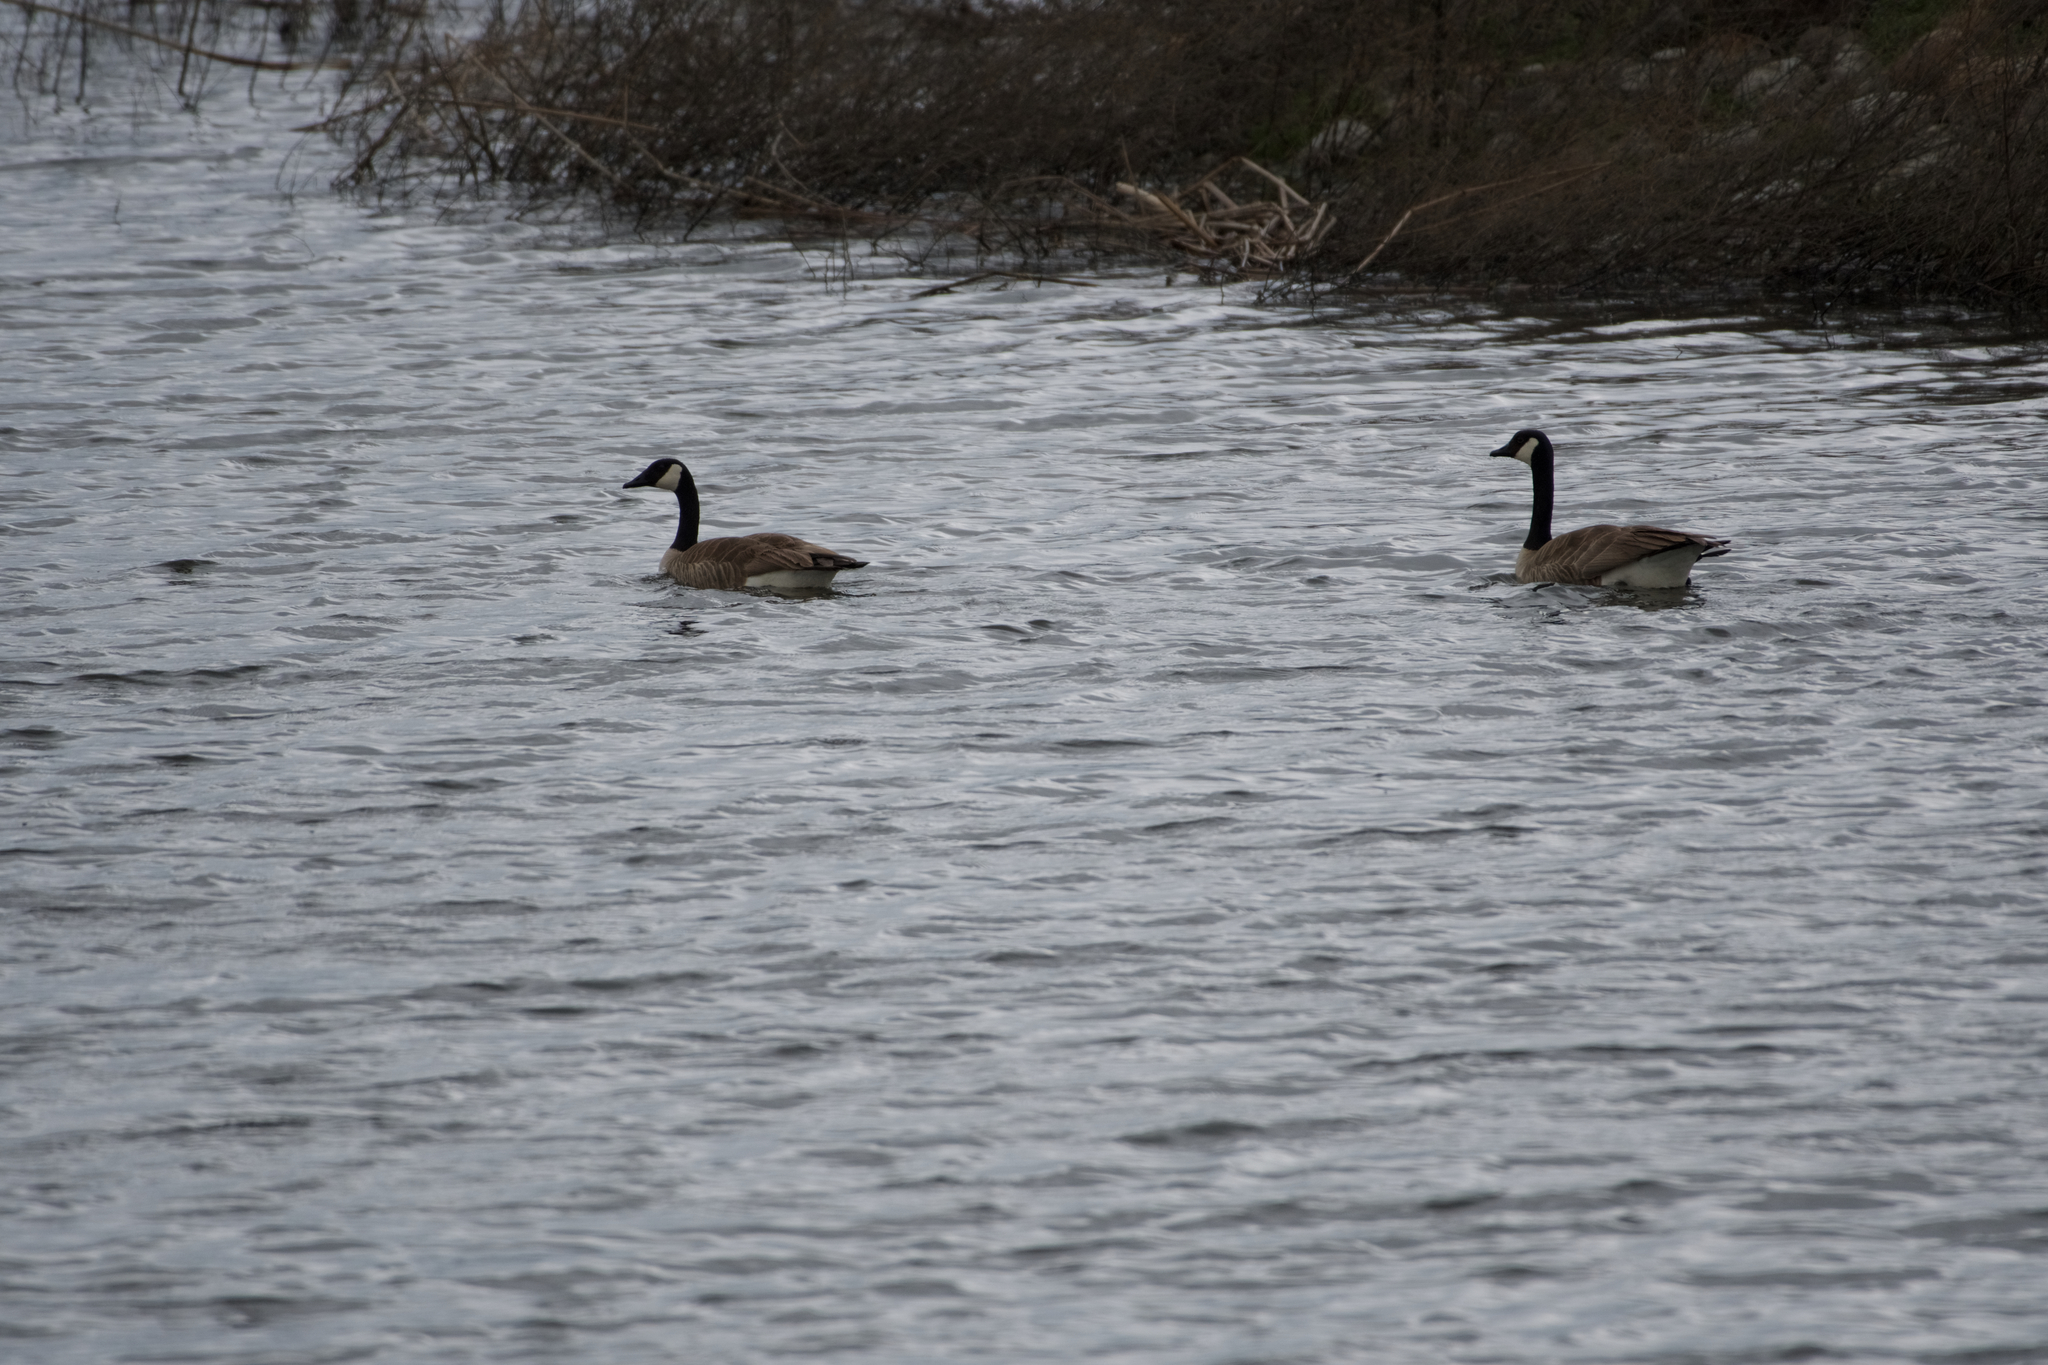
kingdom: Animalia
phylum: Chordata
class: Aves
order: Anseriformes
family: Anatidae
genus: Branta
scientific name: Branta canadensis
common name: Canada goose
